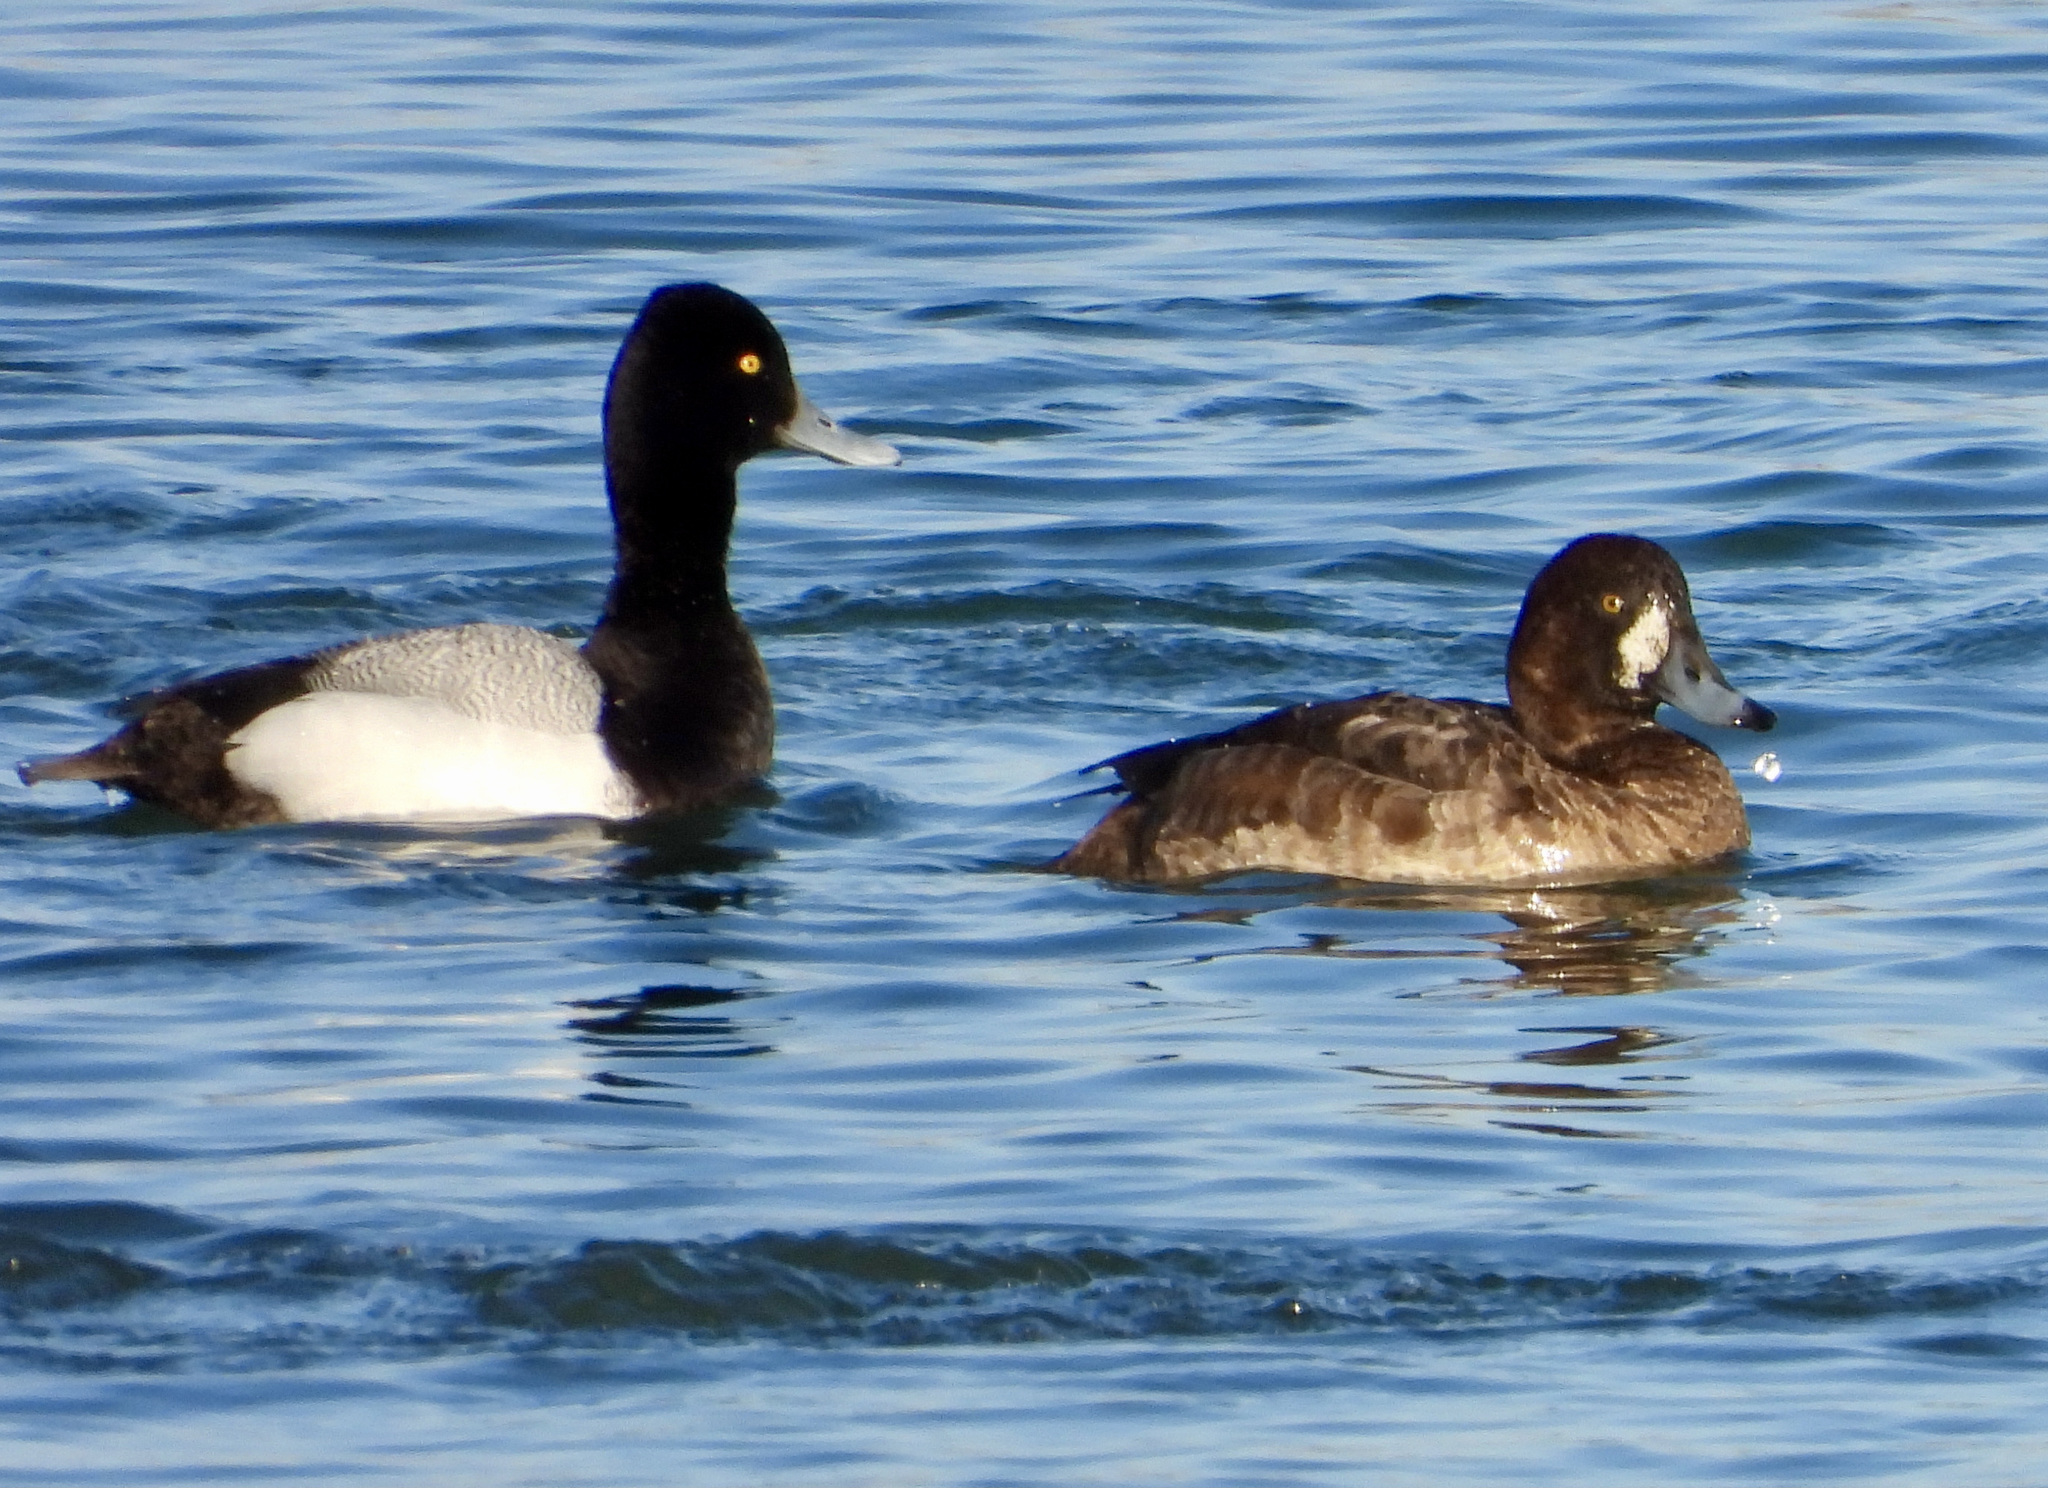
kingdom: Animalia
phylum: Chordata
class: Aves
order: Anseriformes
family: Anatidae
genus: Aythya
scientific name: Aythya affinis
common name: Lesser scaup
